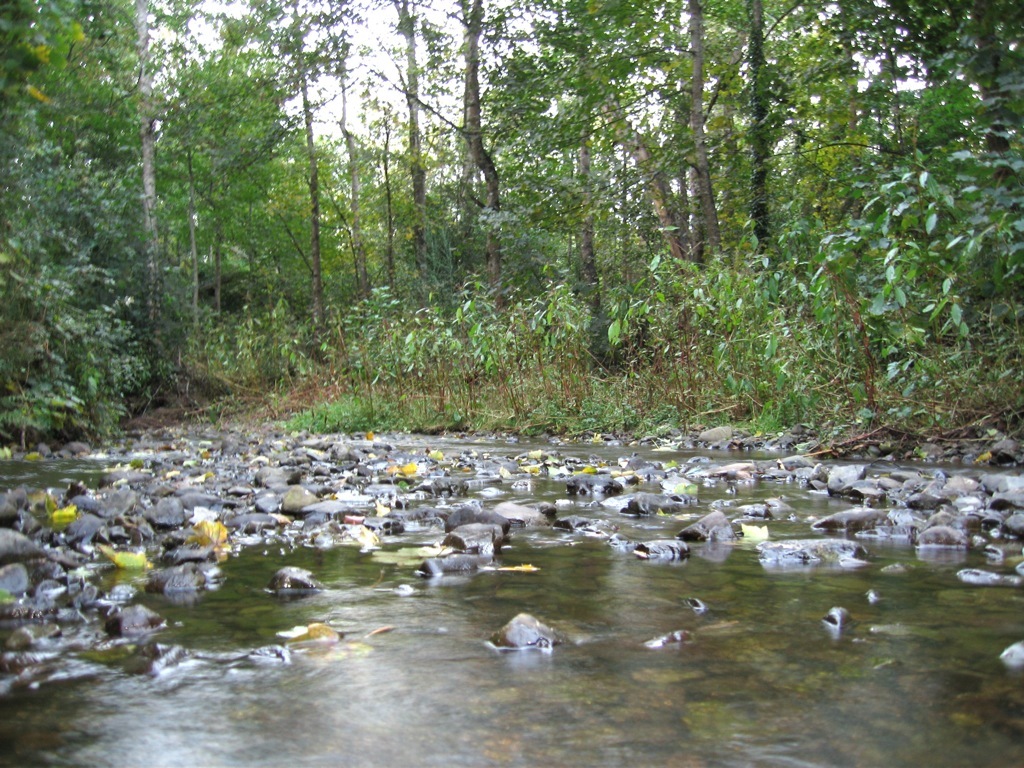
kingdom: Plantae
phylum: Tracheophyta
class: Magnoliopsida
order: Ericales
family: Balsaminaceae
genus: Impatiens
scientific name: Impatiens glandulifera
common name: Himalayan balsam
